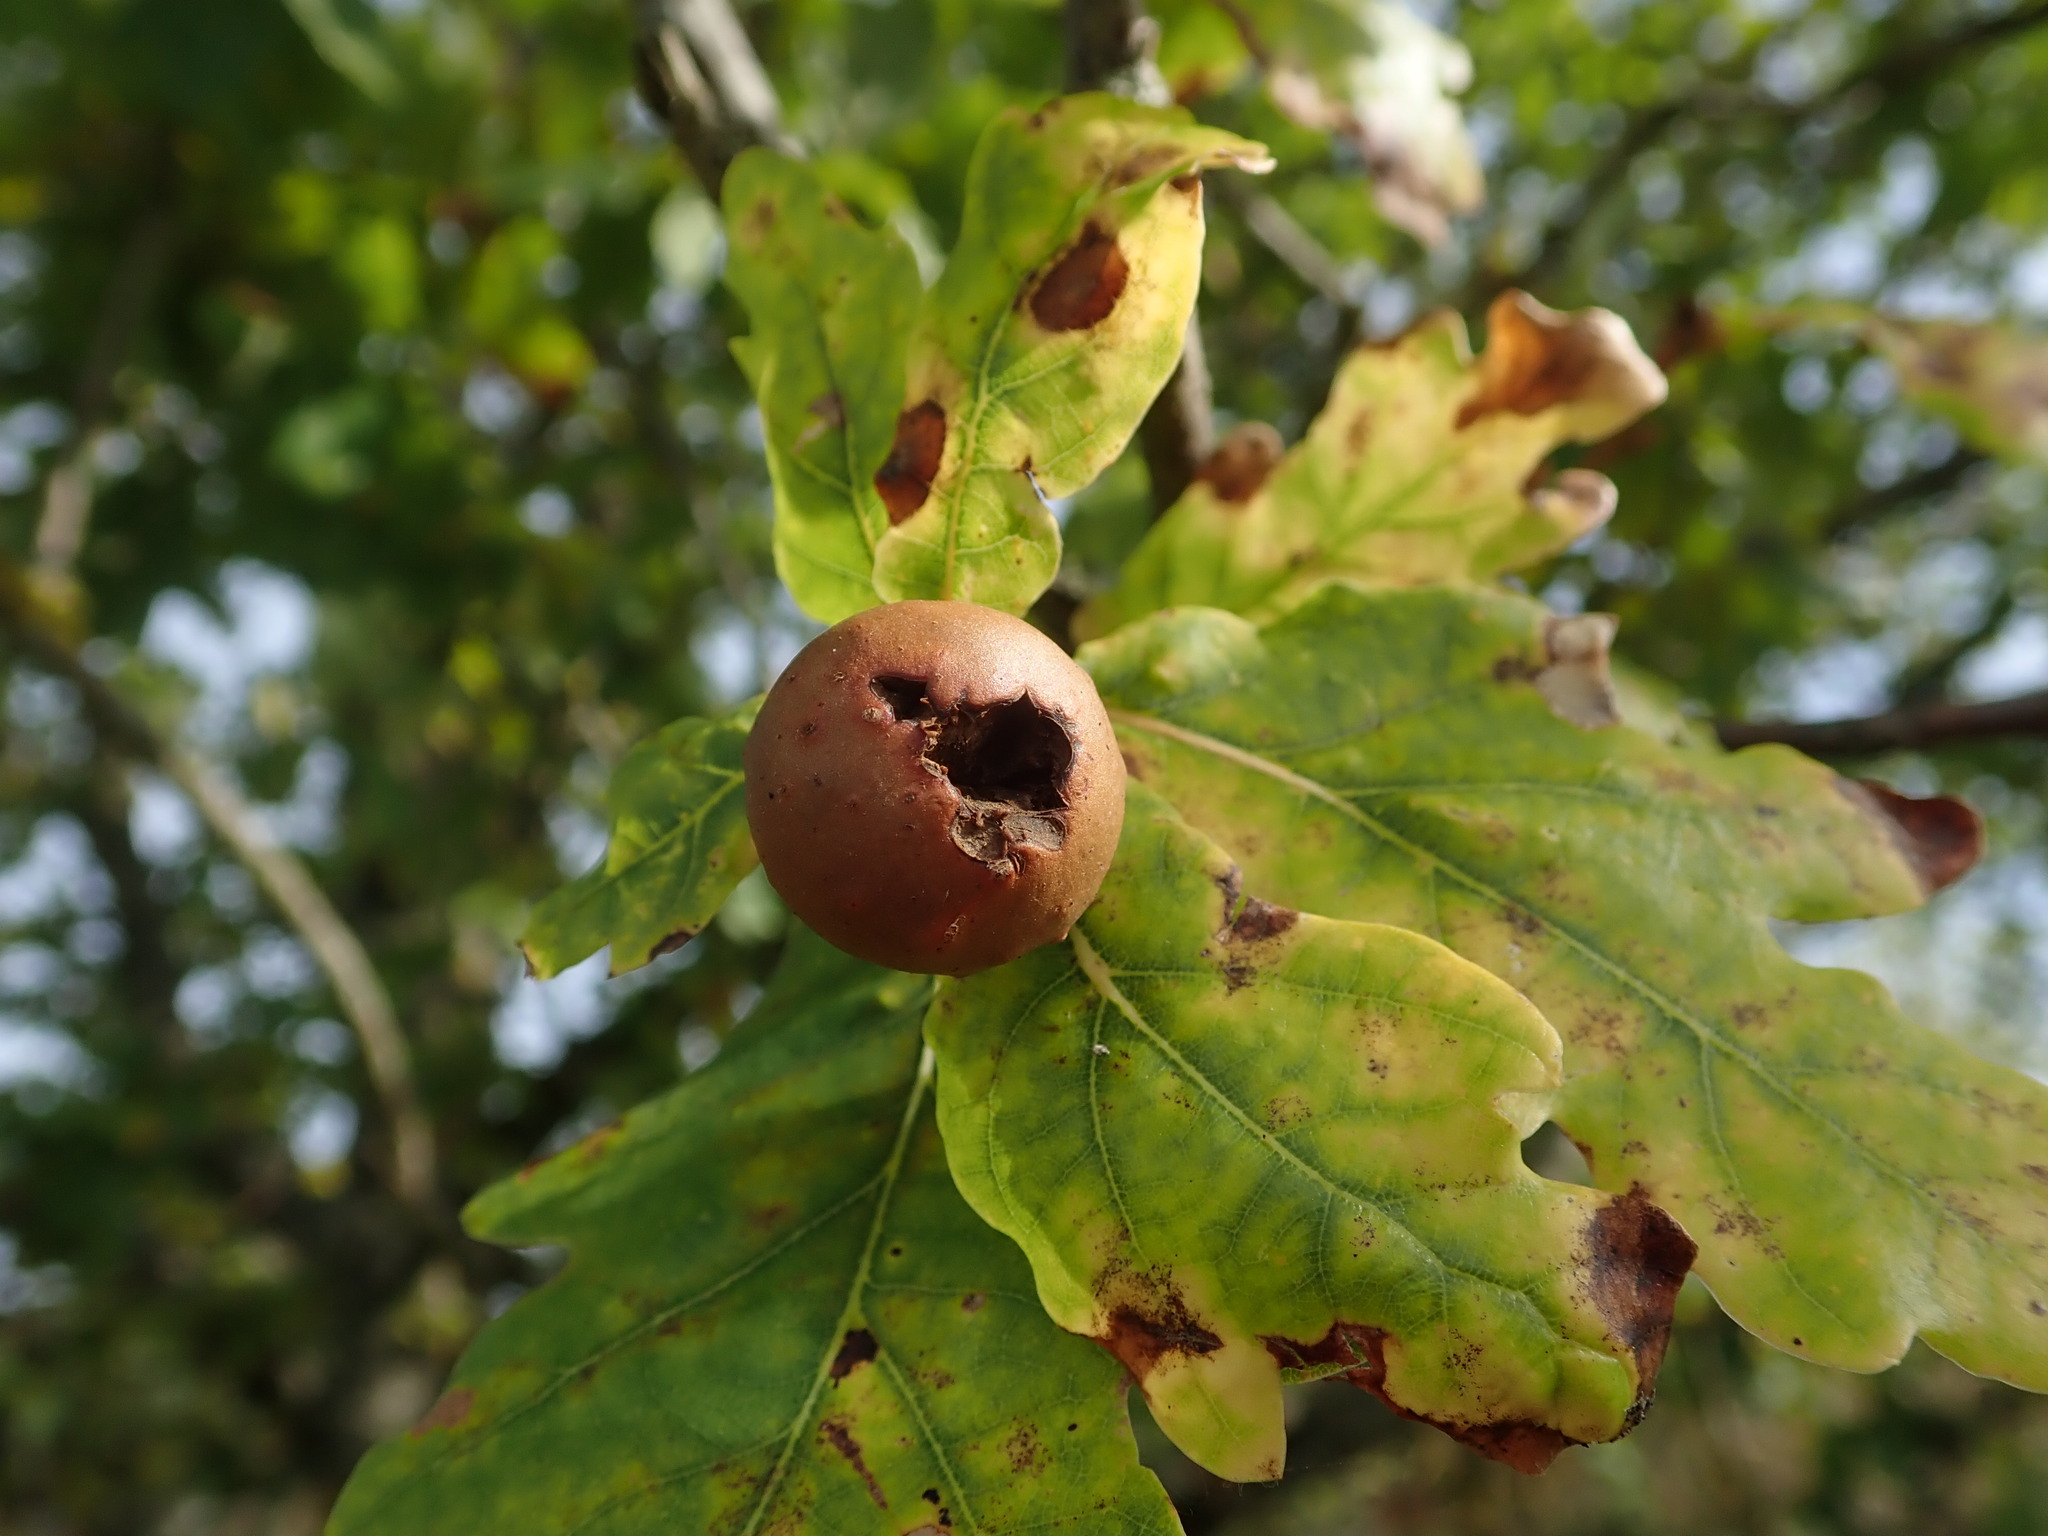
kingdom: Animalia
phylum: Arthropoda
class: Insecta
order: Hymenoptera
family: Cynipidae
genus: Andricus
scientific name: Andricus kollari
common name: Marble gall
